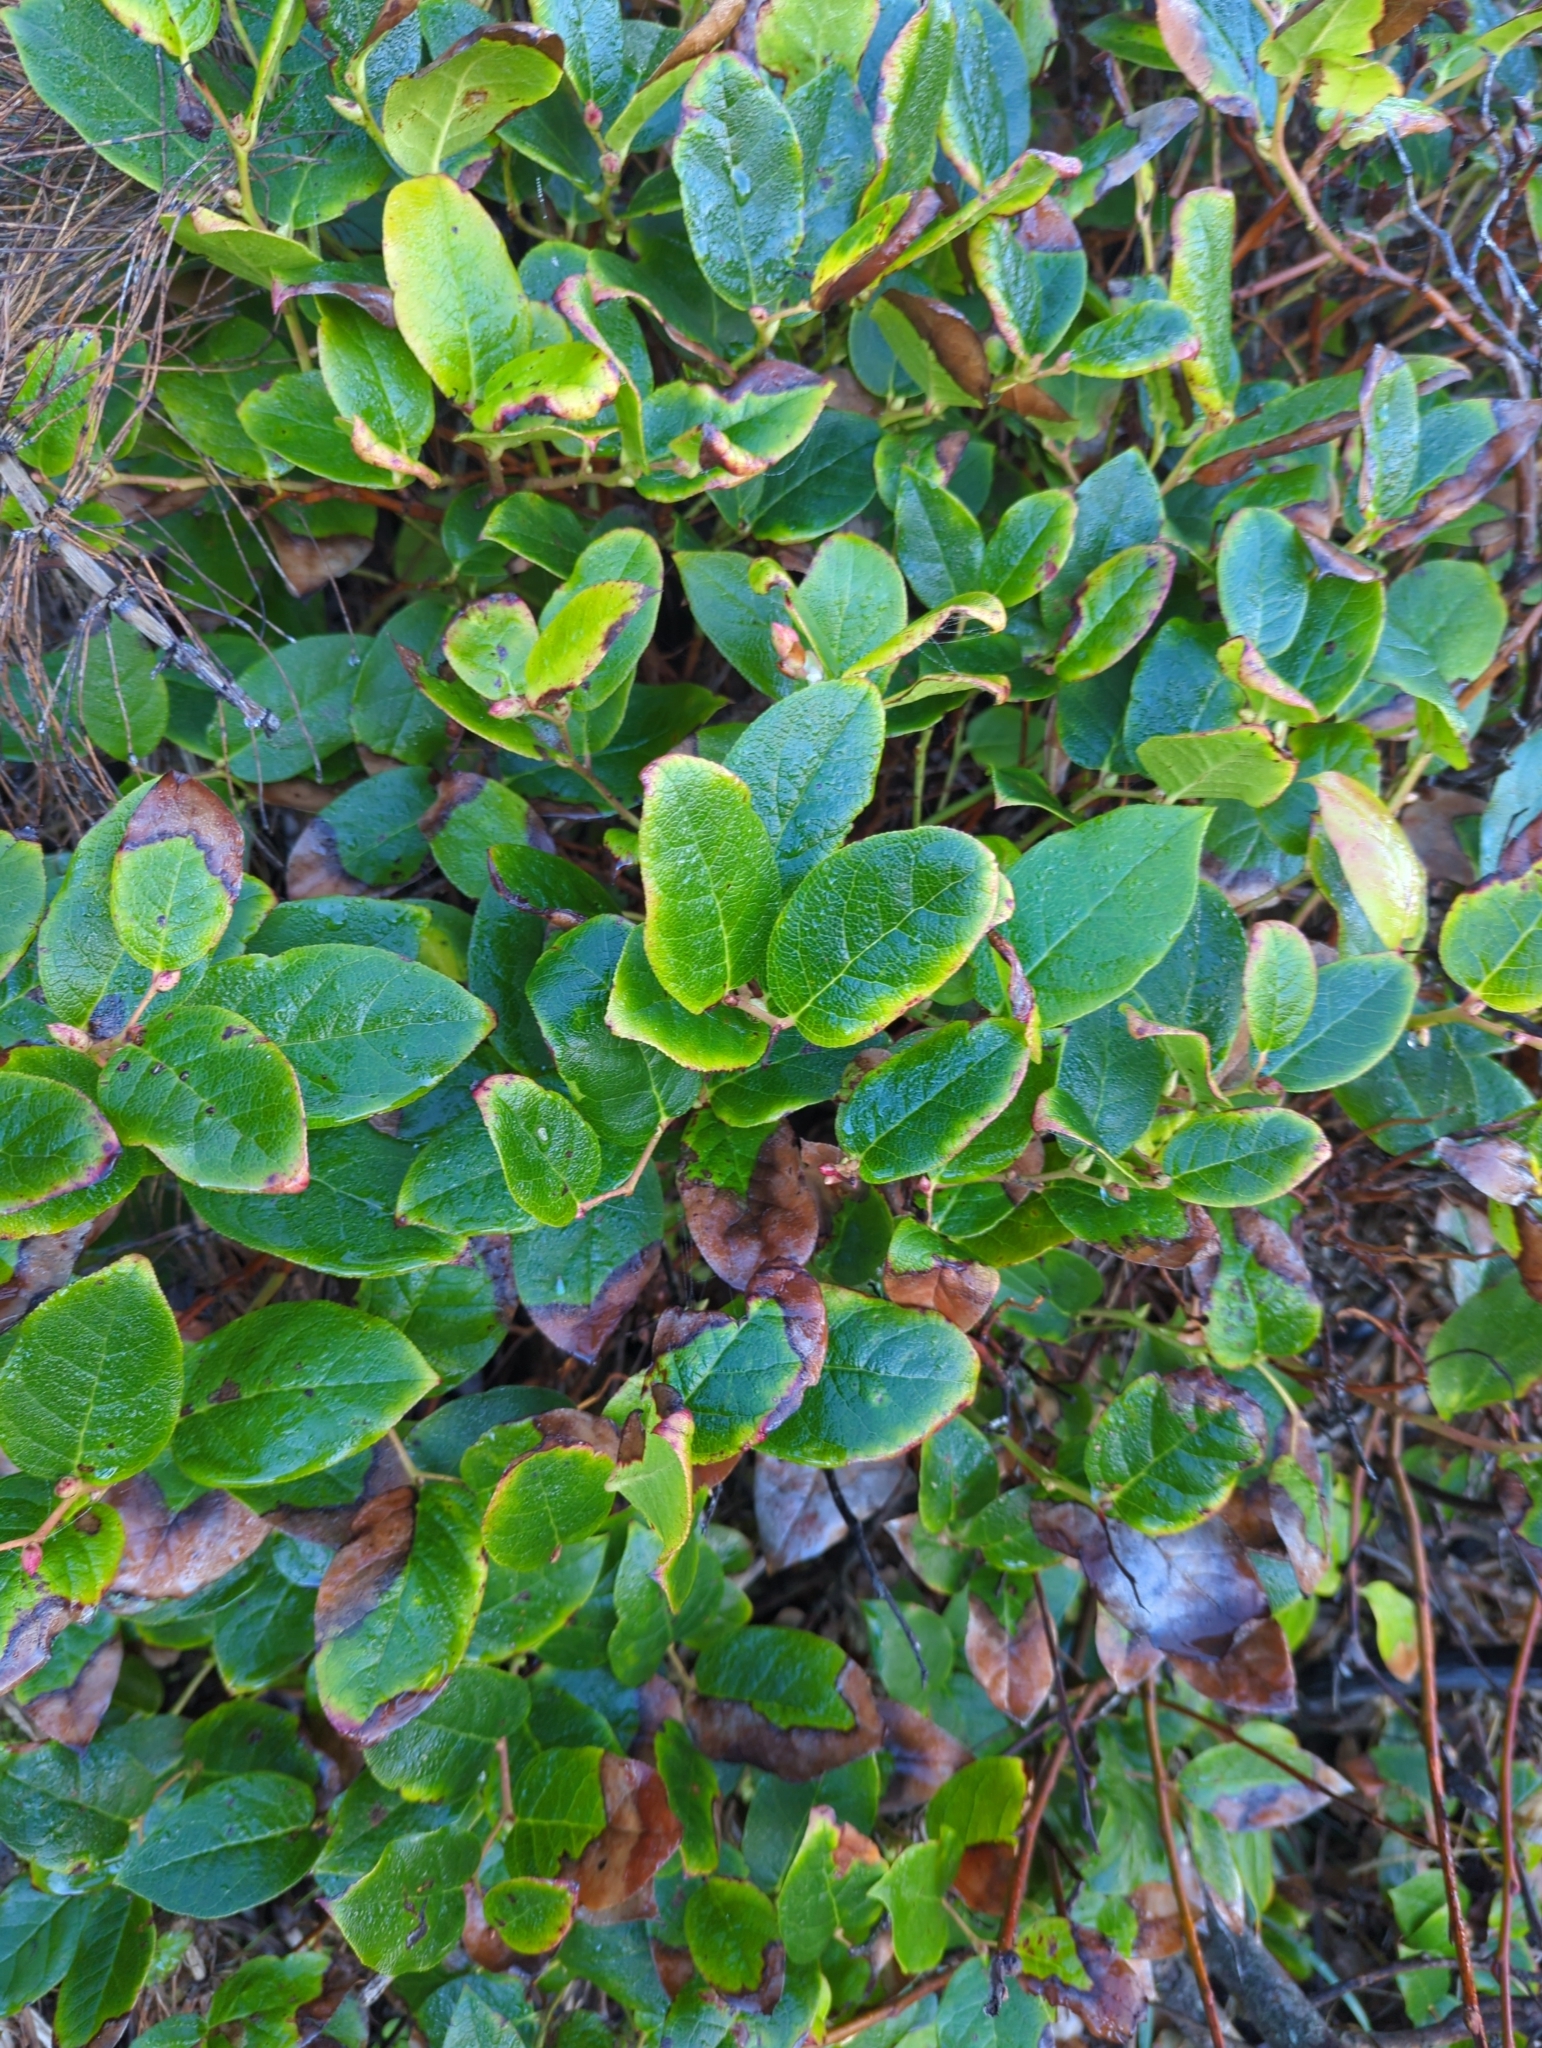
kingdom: Plantae
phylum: Tracheophyta
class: Magnoliopsida
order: Ericales
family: Ericaceae
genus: Gaultheria
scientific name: Gaultheria shallon
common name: Shallon
